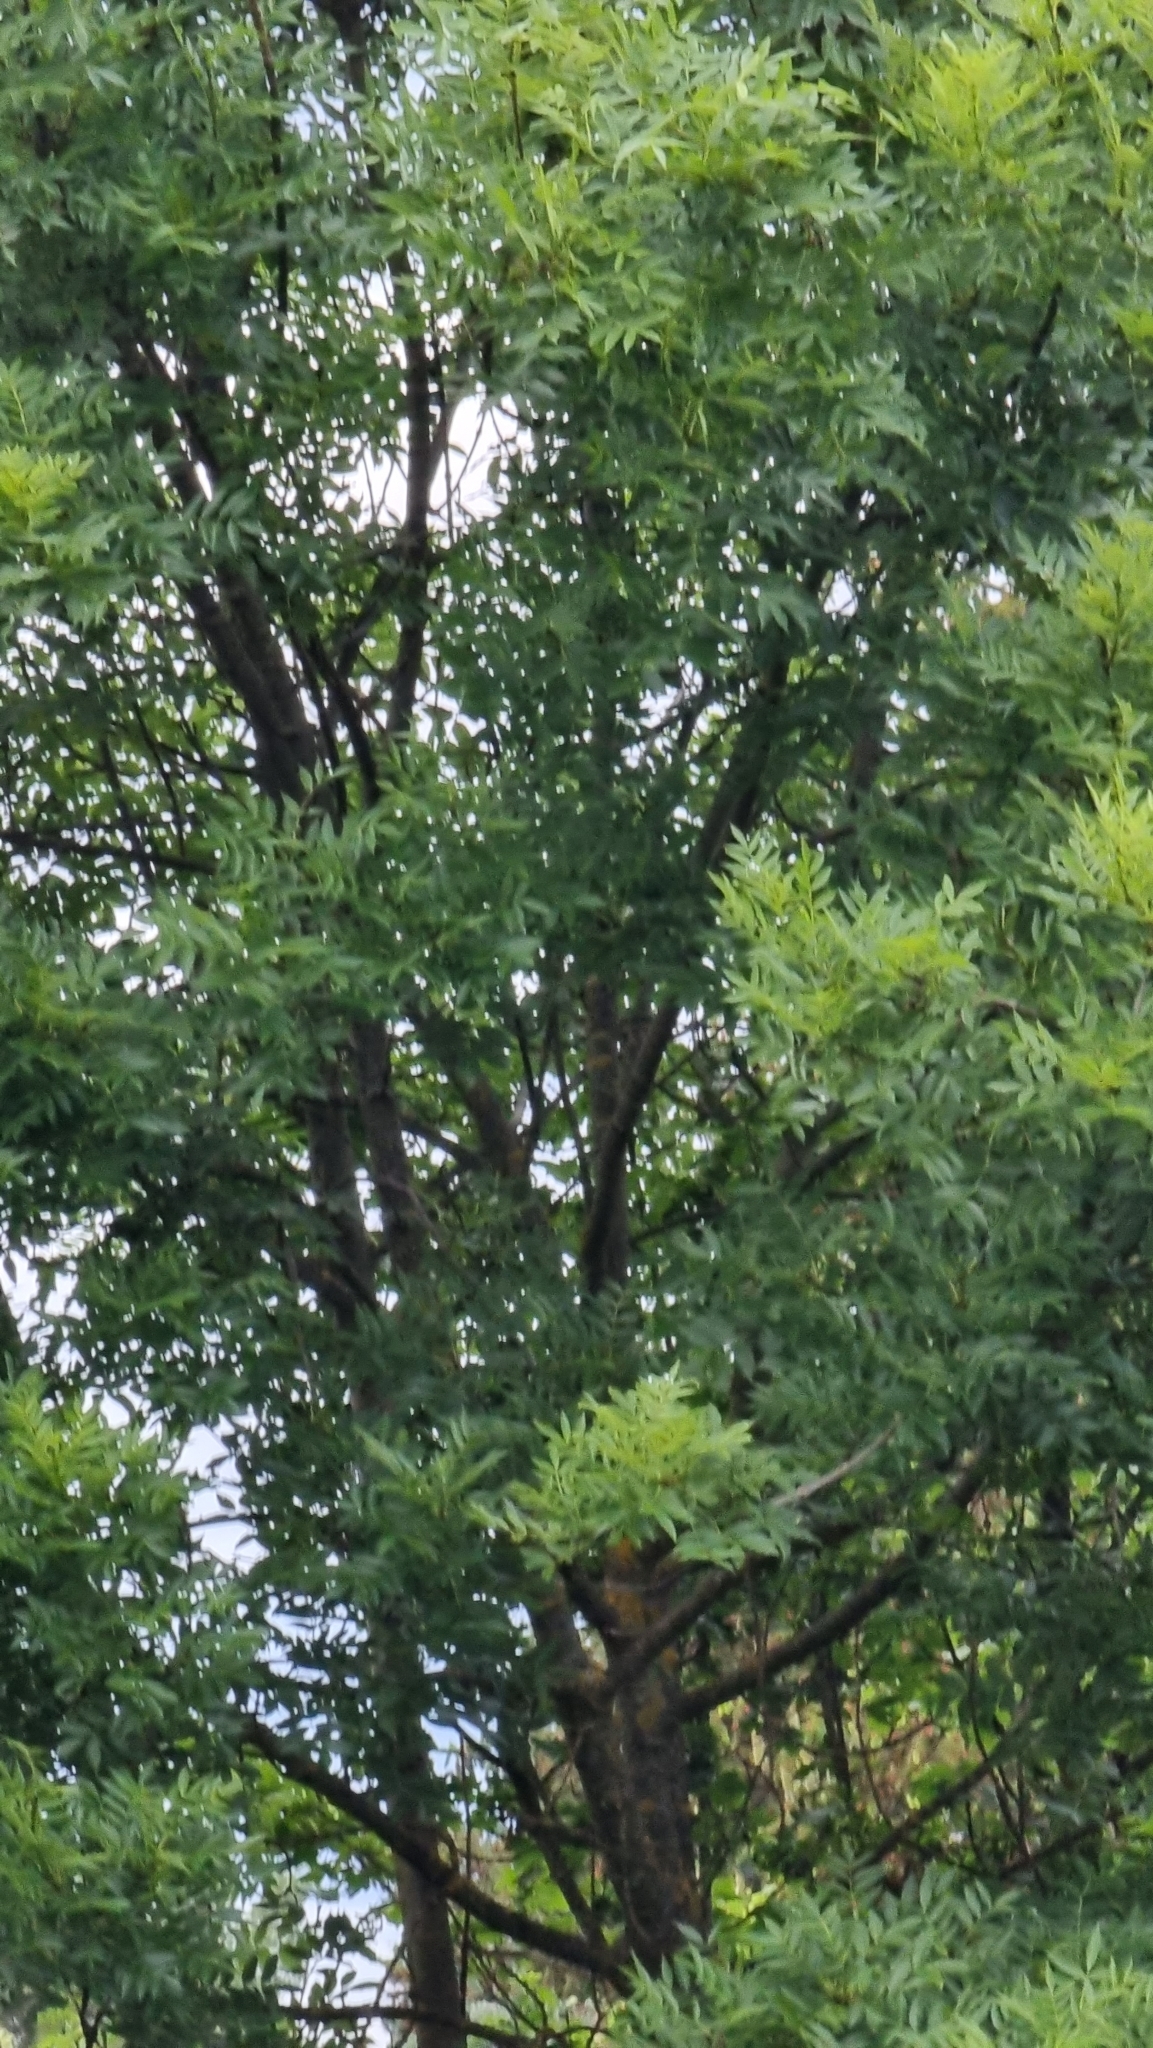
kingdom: Plantae
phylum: Tracheophyta
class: Magnoliopsida
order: Fabales
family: Fabaceae
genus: Robinia
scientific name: Robinia pseudoacacia
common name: Black locust
